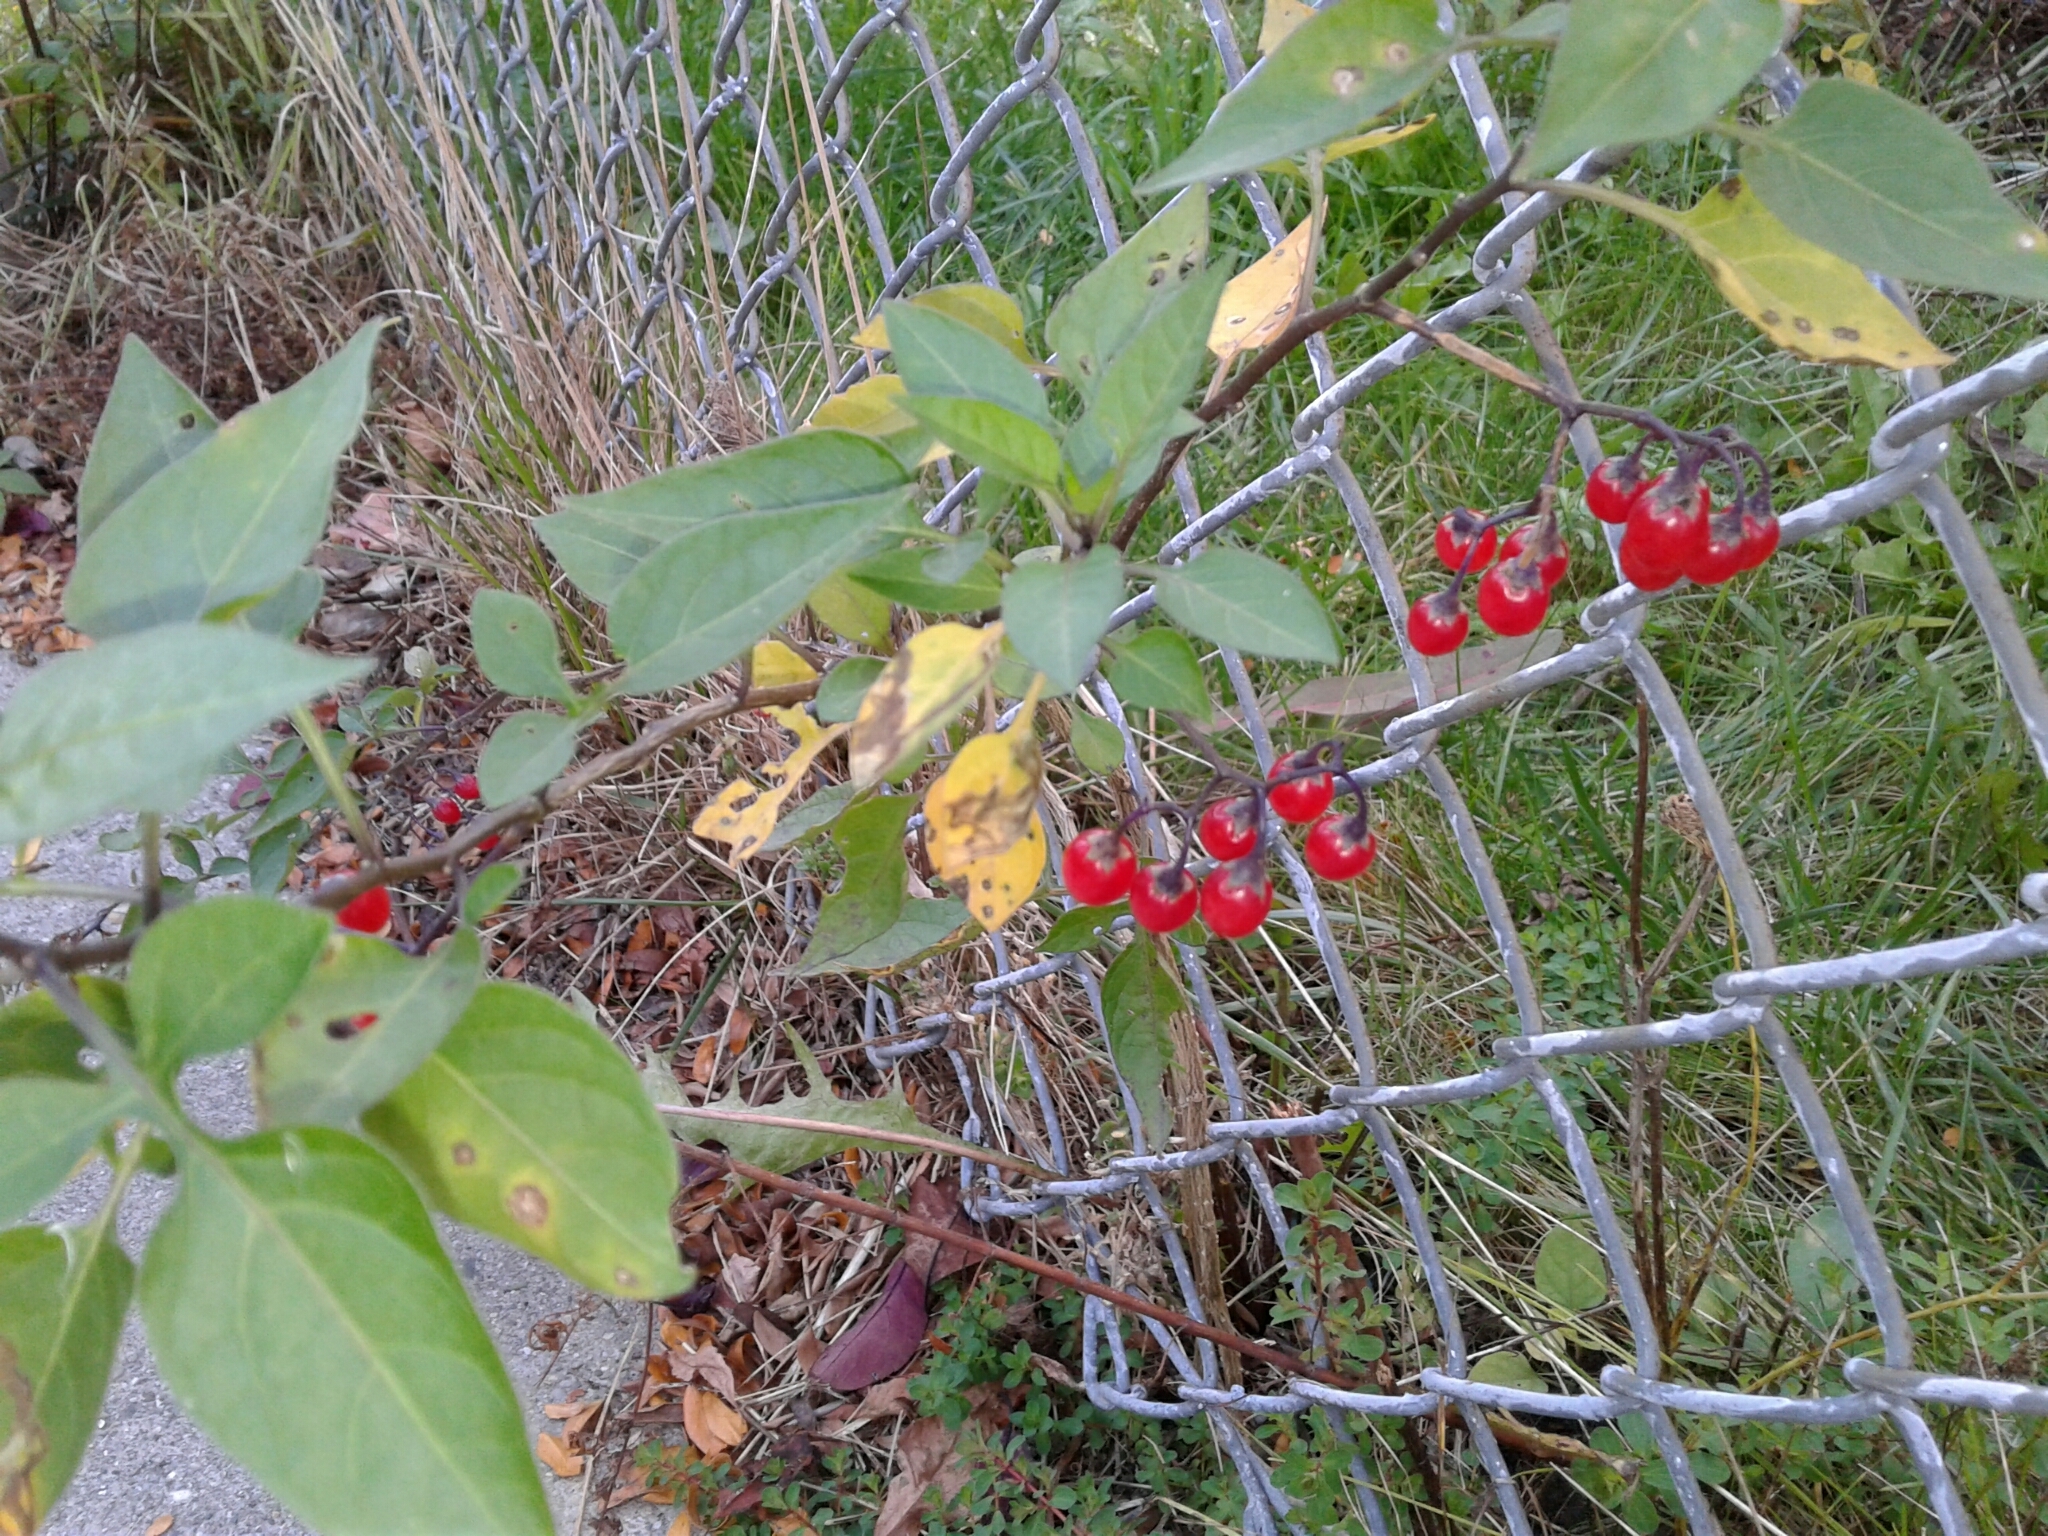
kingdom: Plantae
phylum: Tracheophyta
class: Magnoliopsida
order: Solanales
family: Solanaceae
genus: Solanum
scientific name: Solanum dulcamara
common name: Climbing nightshade
